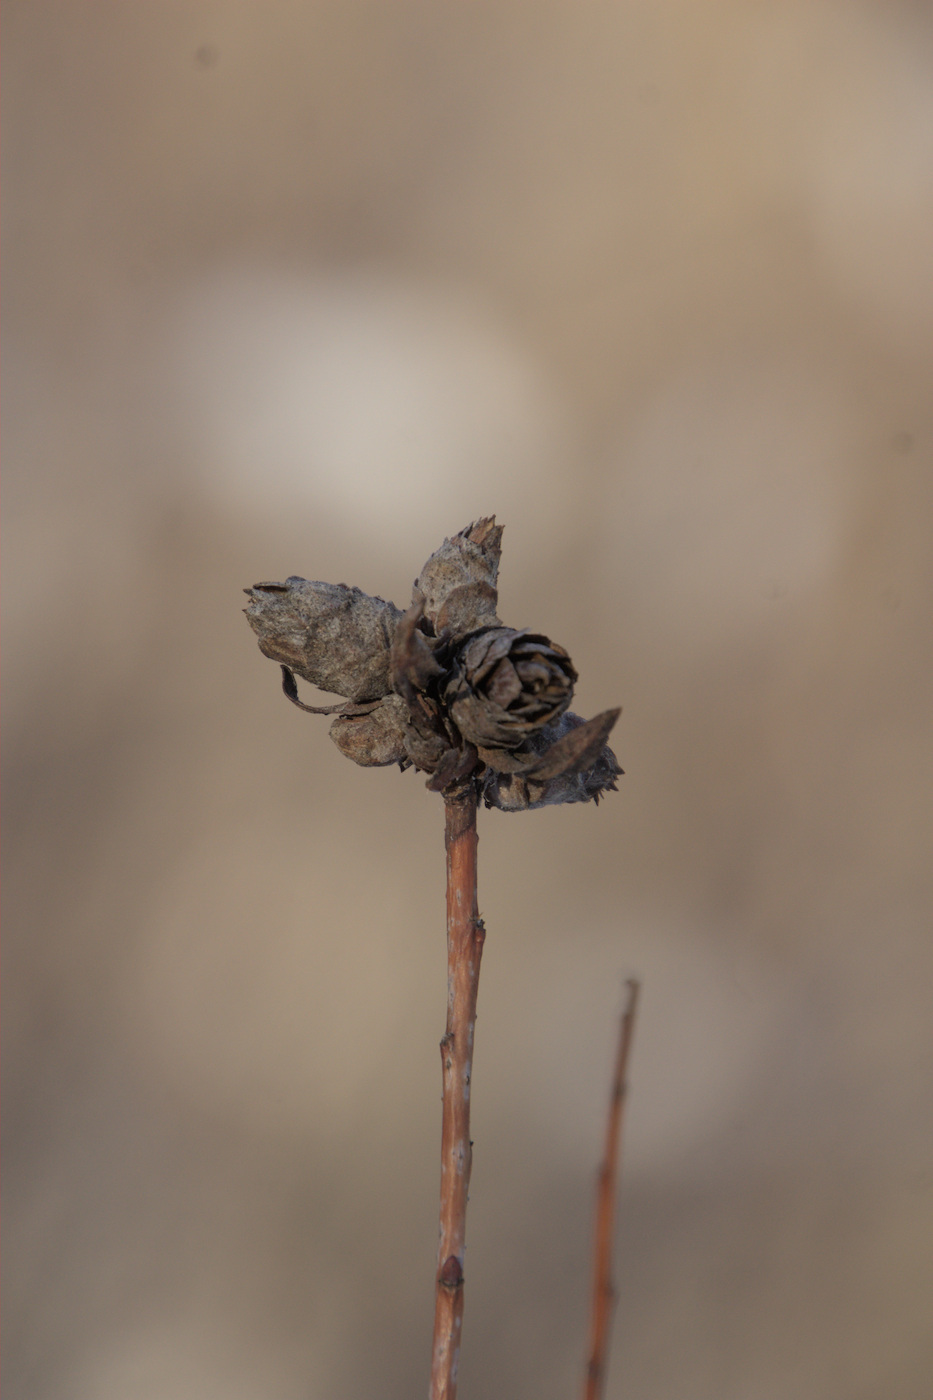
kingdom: Animalia
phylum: Arthropoda
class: Insecta
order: Diptera
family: Cecidomyiidae
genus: Rabdophaga
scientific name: Rabdophaga strobiloides
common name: Willow pinecone gall midge
